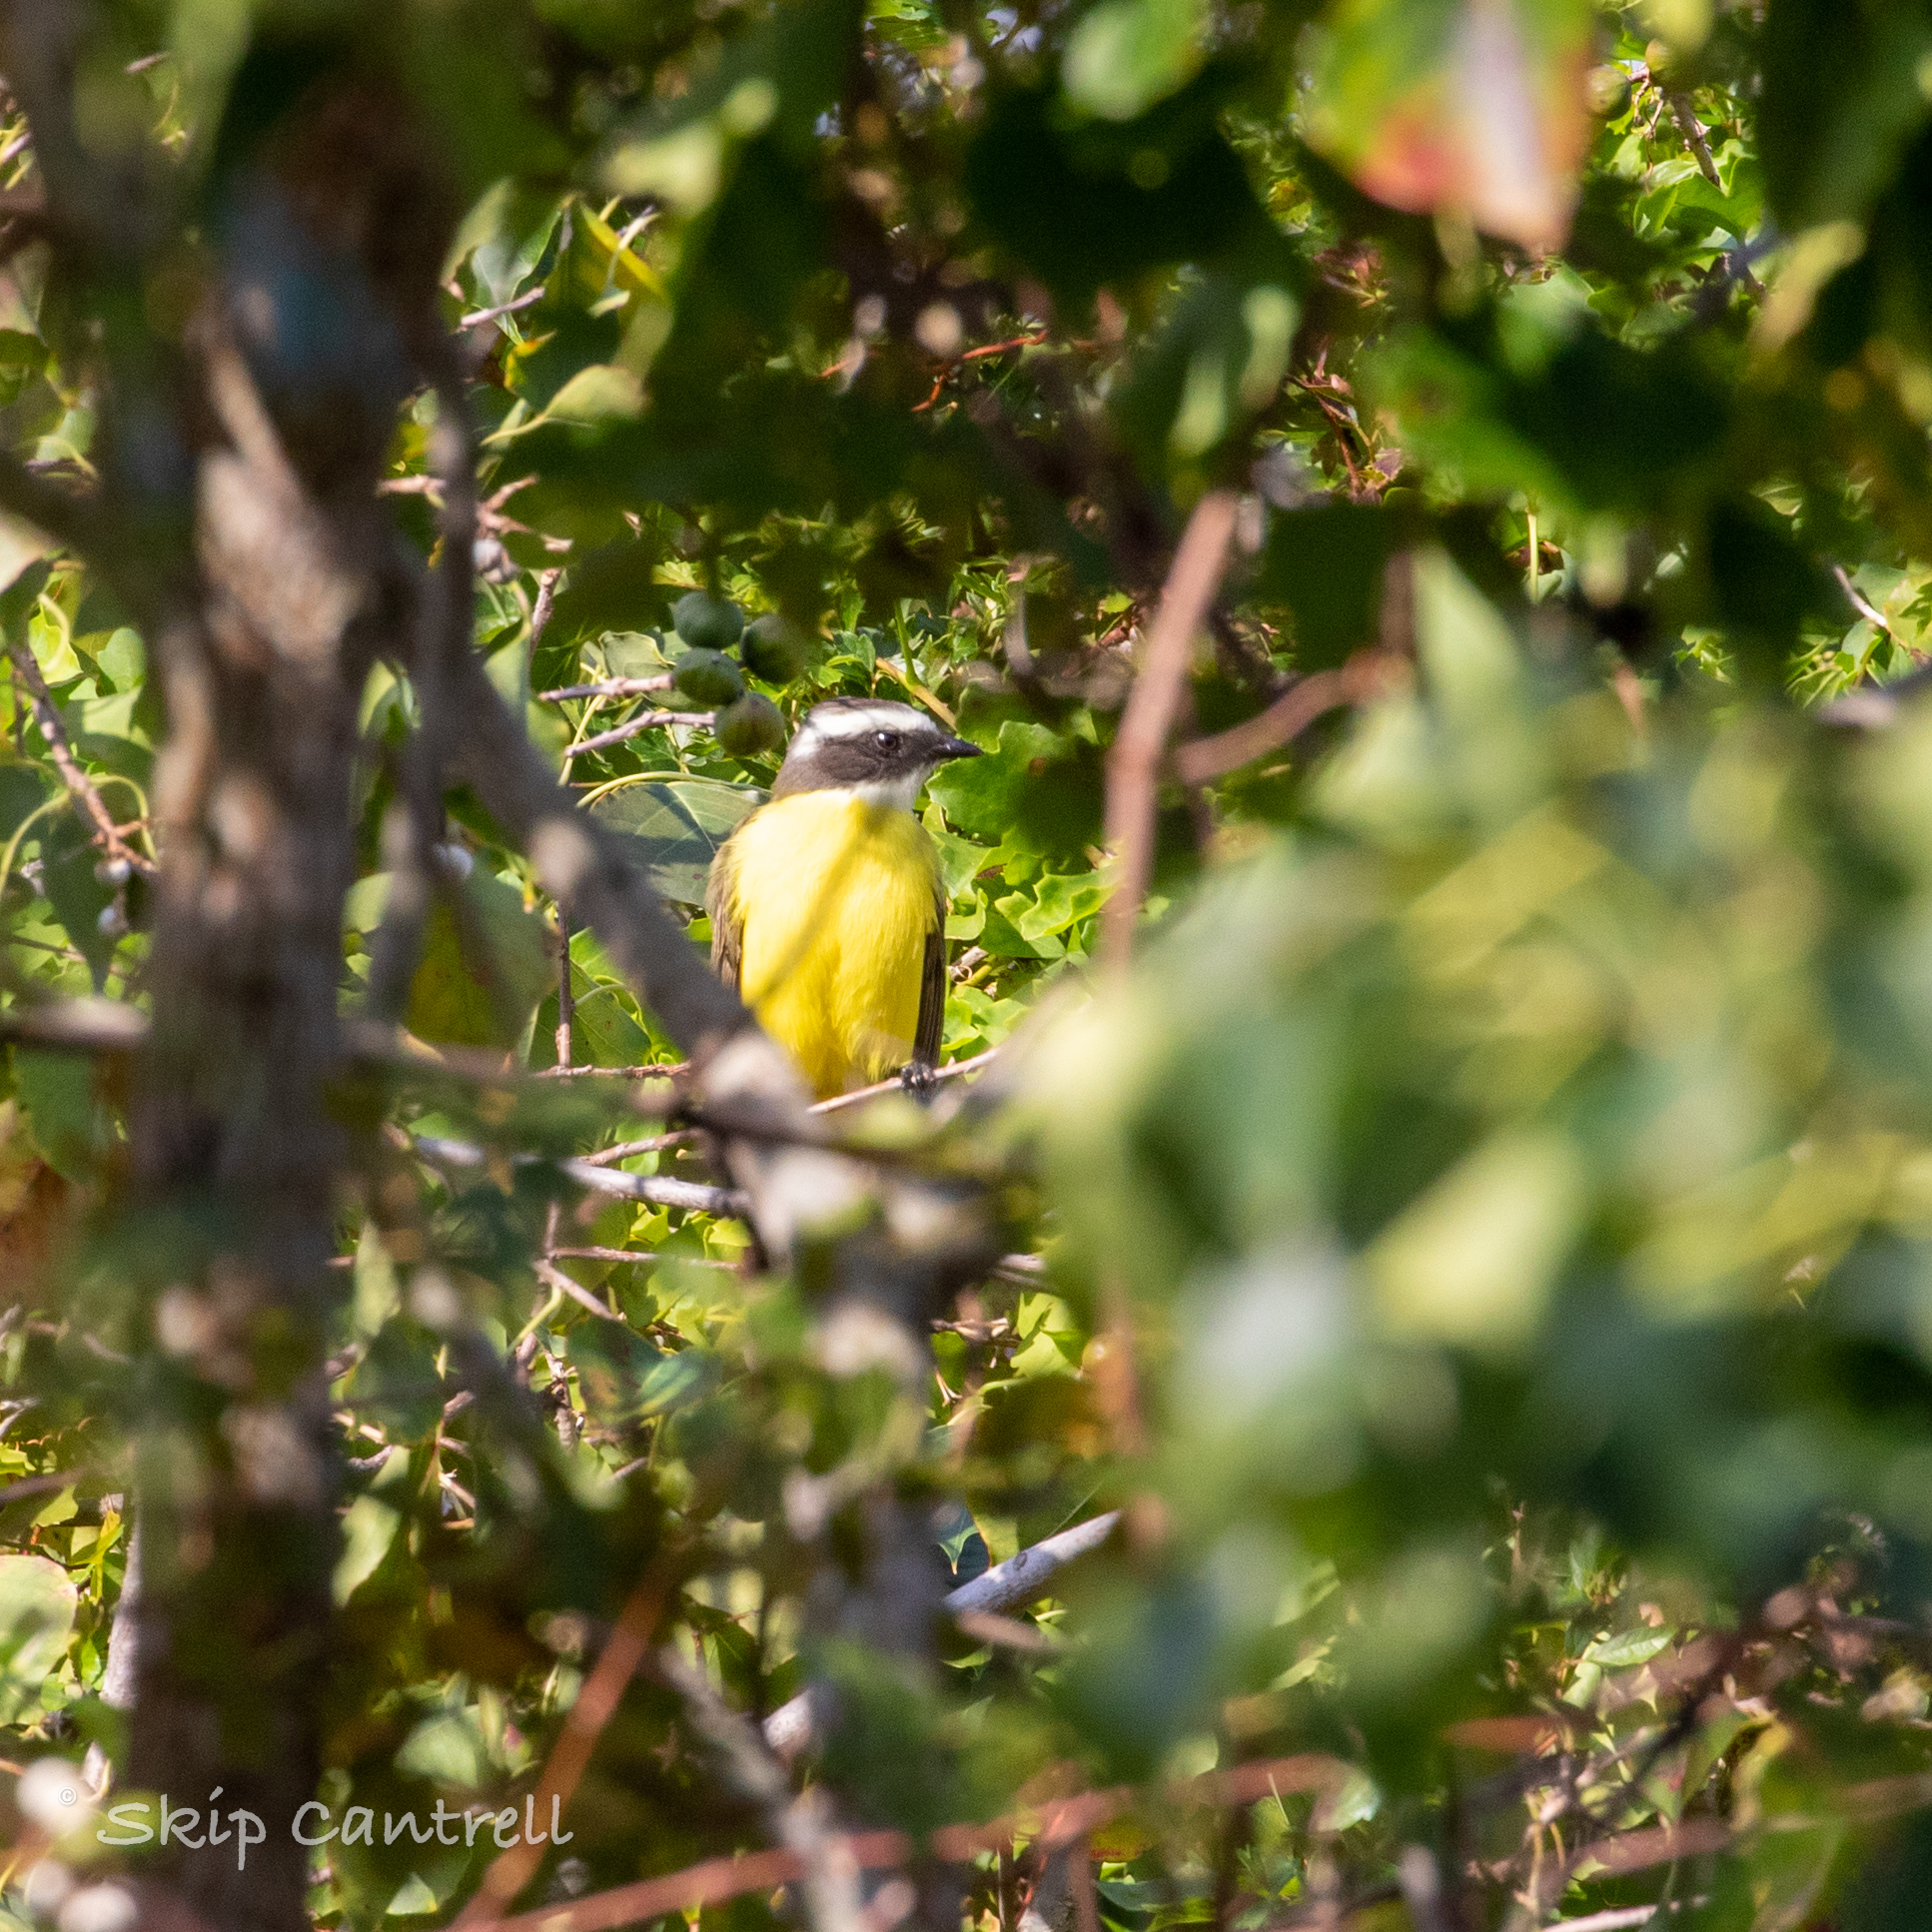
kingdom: Animalia
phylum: Chordata
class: Aves
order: Passeriformes
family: Tyrannidae
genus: Myiozetetes
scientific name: Myiozetetes similis
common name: Social flycatcher
